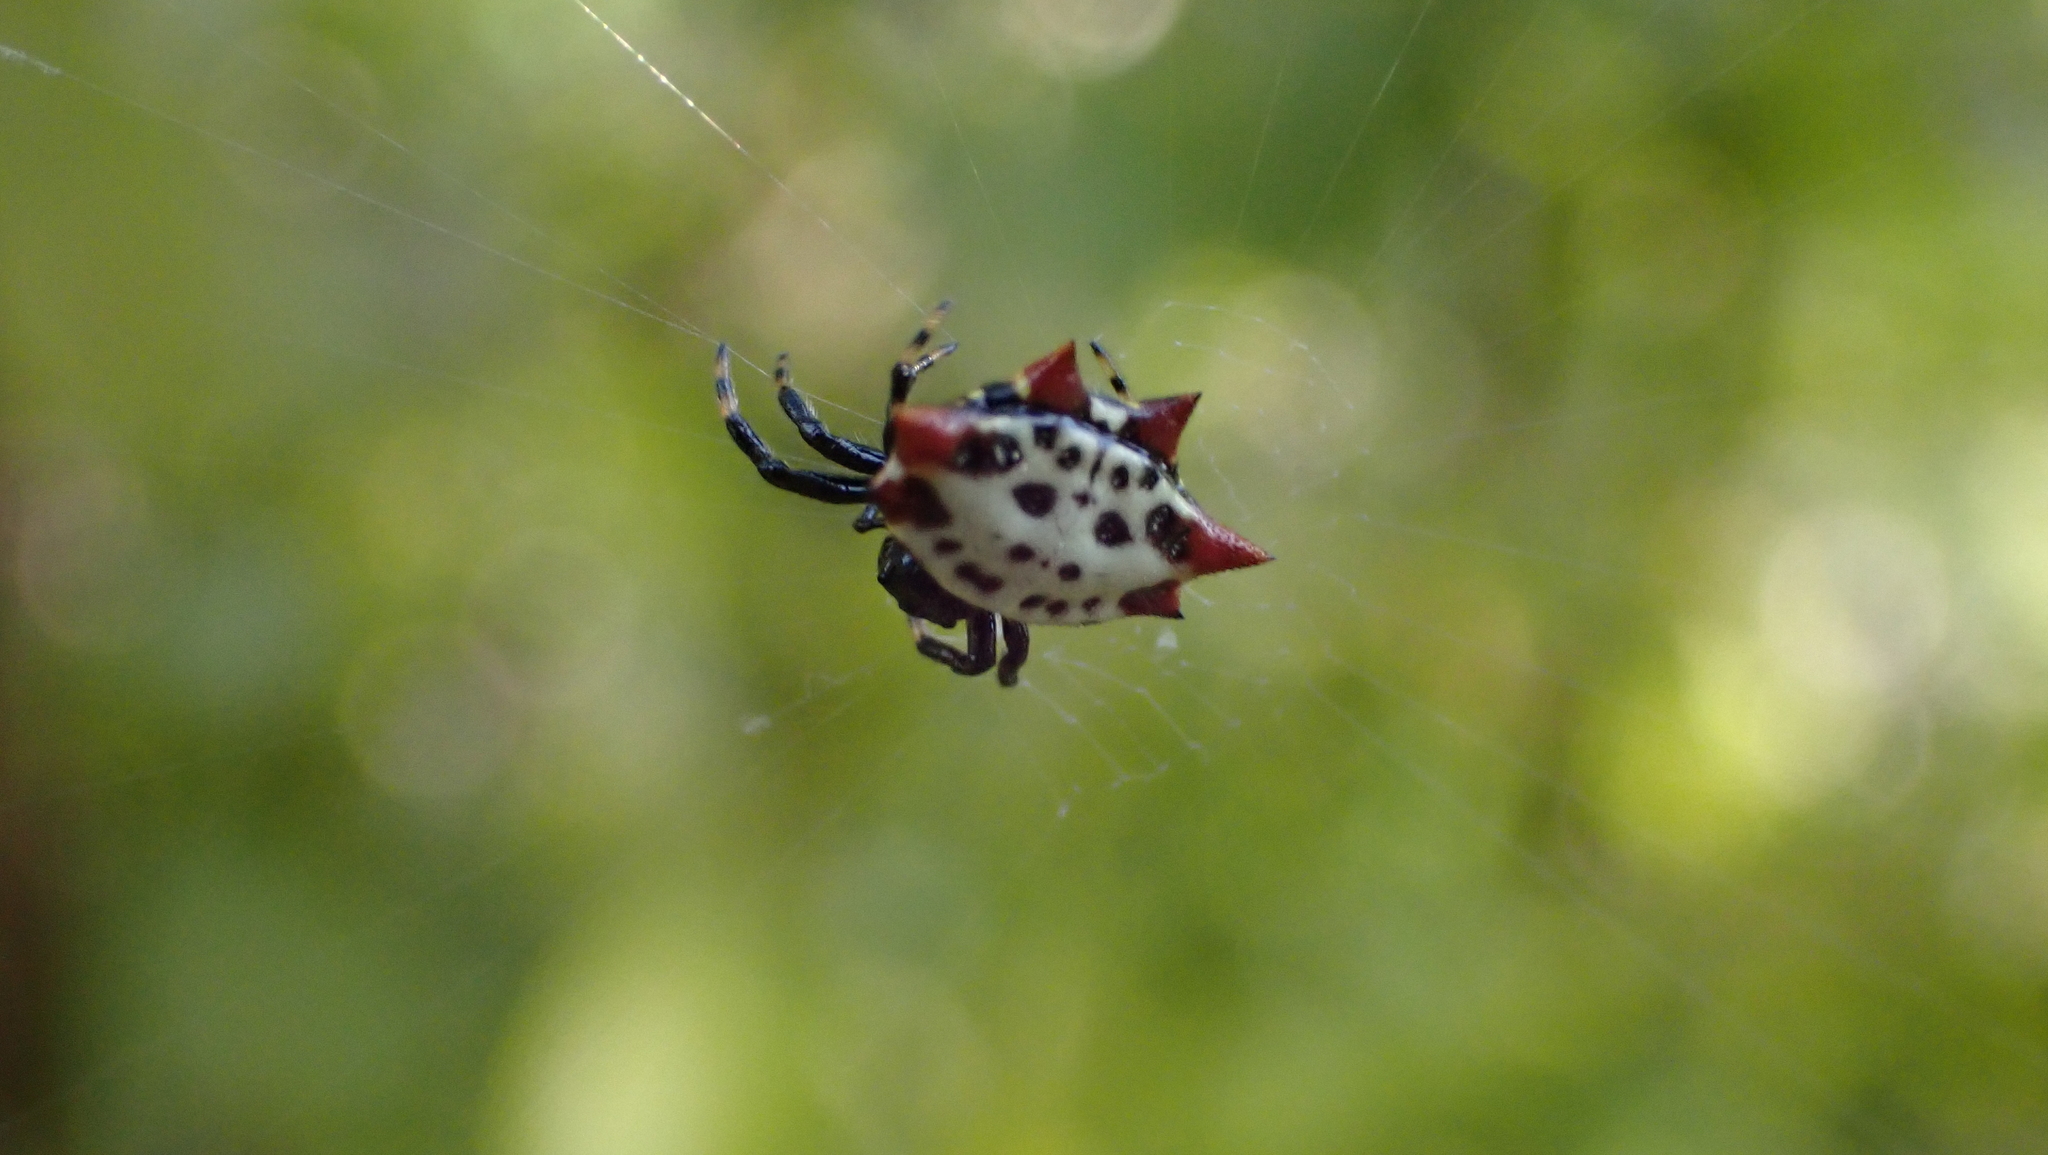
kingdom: Animalia
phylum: Arthropoda
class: Arachnida
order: Araneae
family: Araneidae
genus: Gasteracantha
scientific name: Gasteracantha cancriformis
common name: Orb weavers
